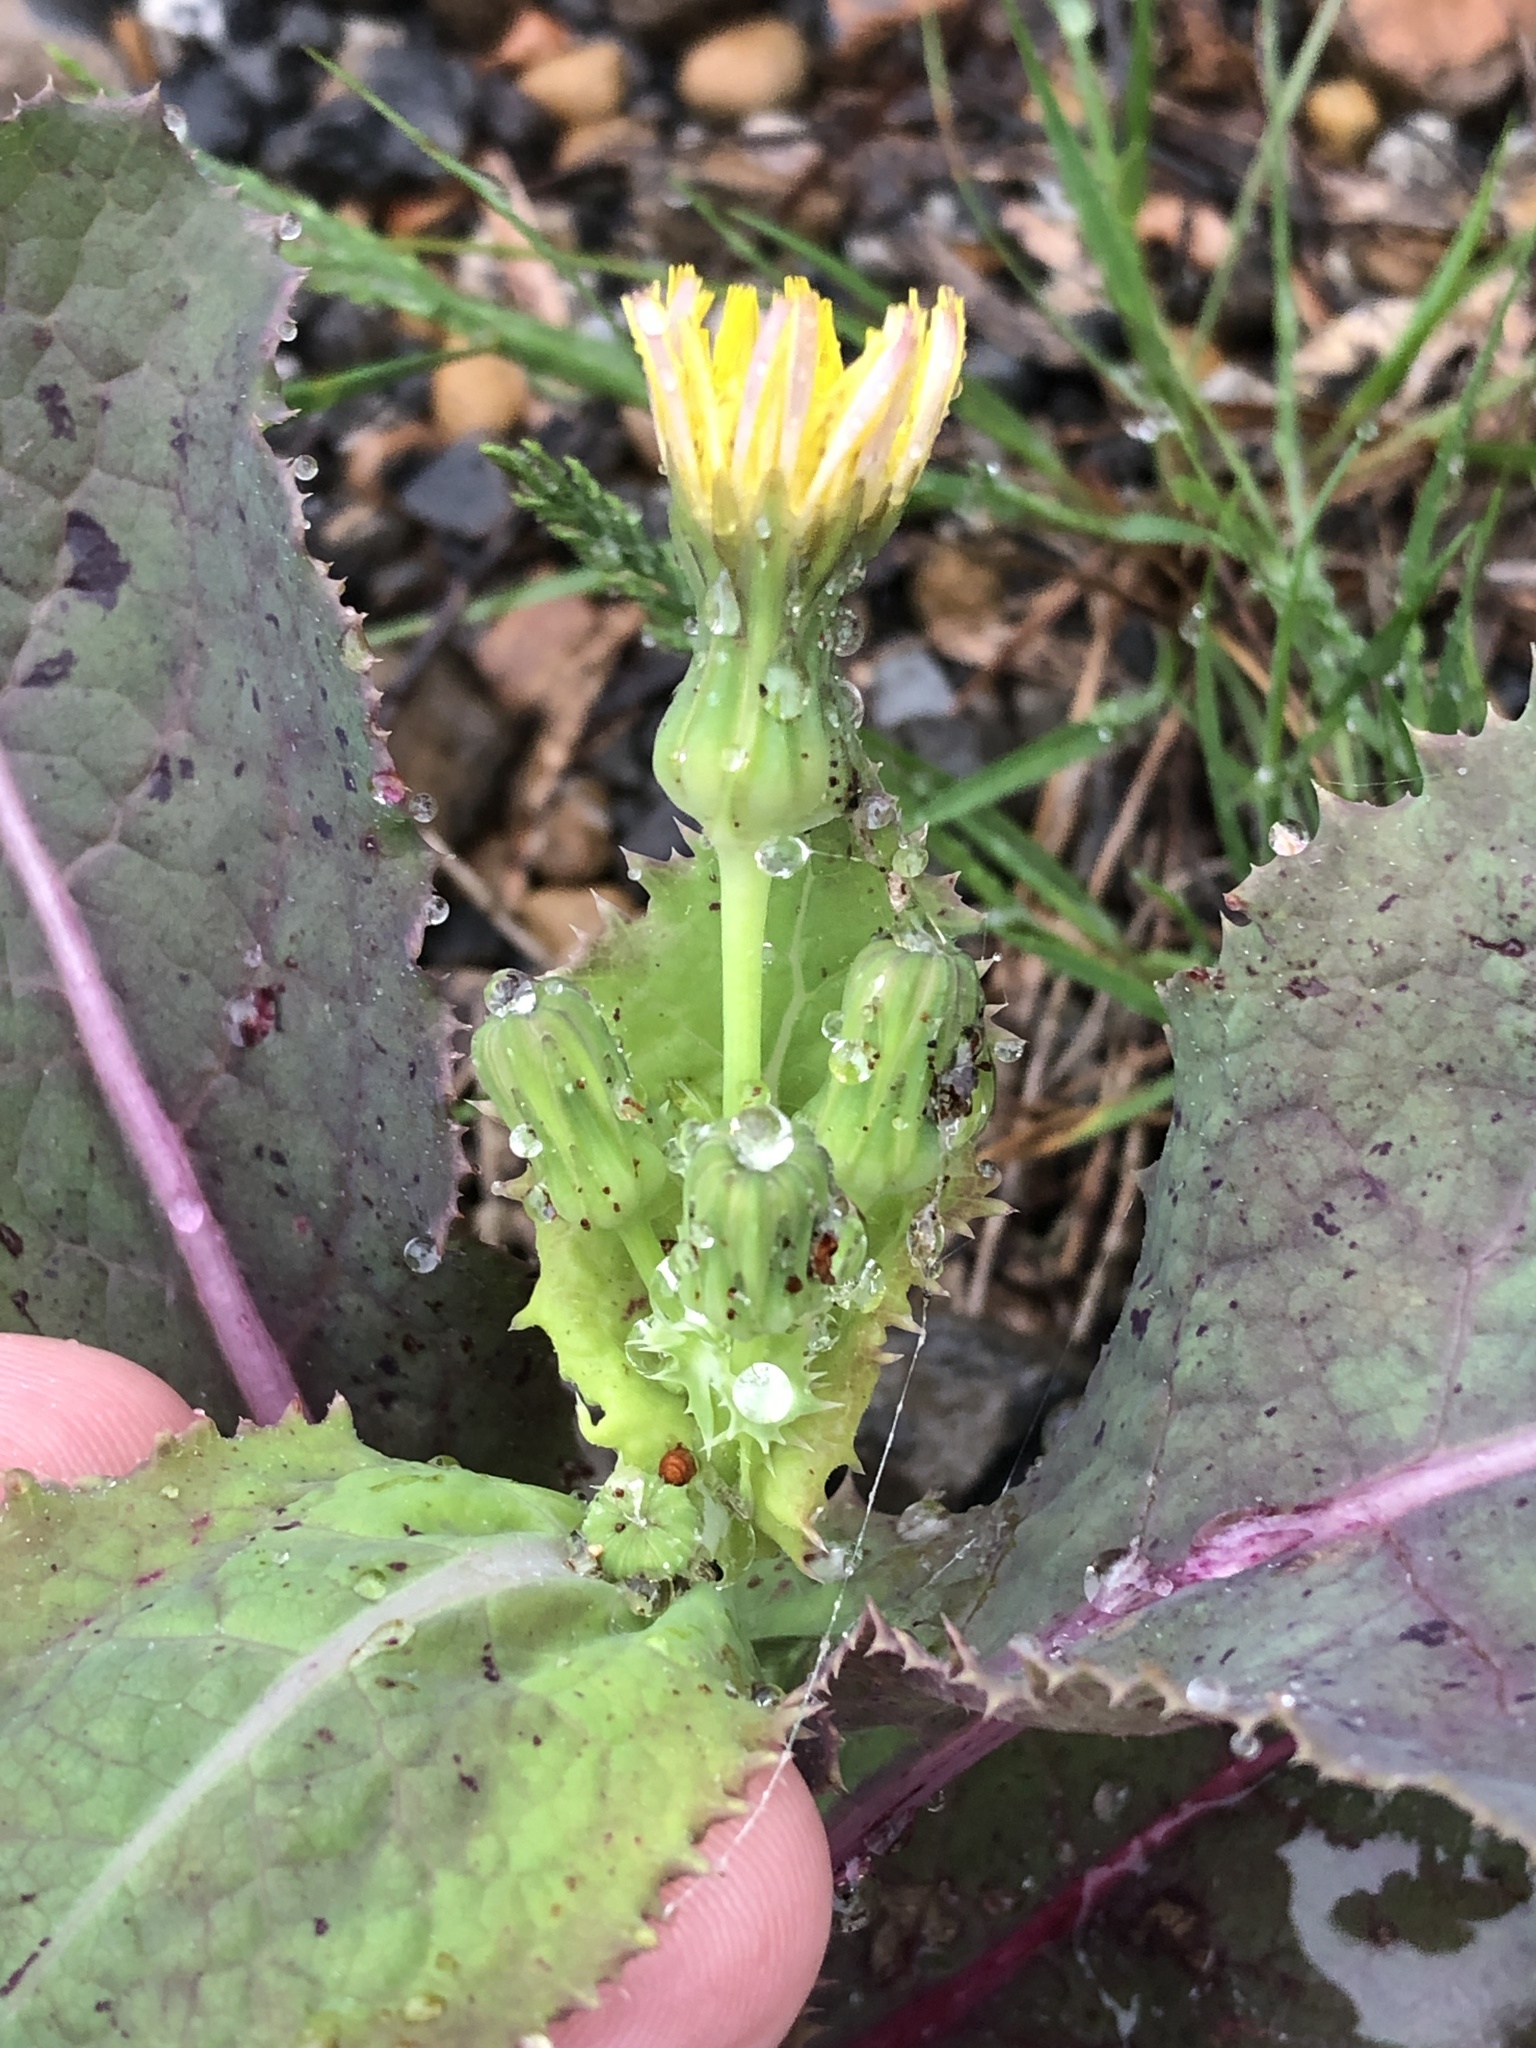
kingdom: Plantae
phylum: Tracheophyta
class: Magnoliopsida
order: Asterales
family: Asteraceae
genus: Sonchus
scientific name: Sonchus oleraceus
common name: Common sowthistle
